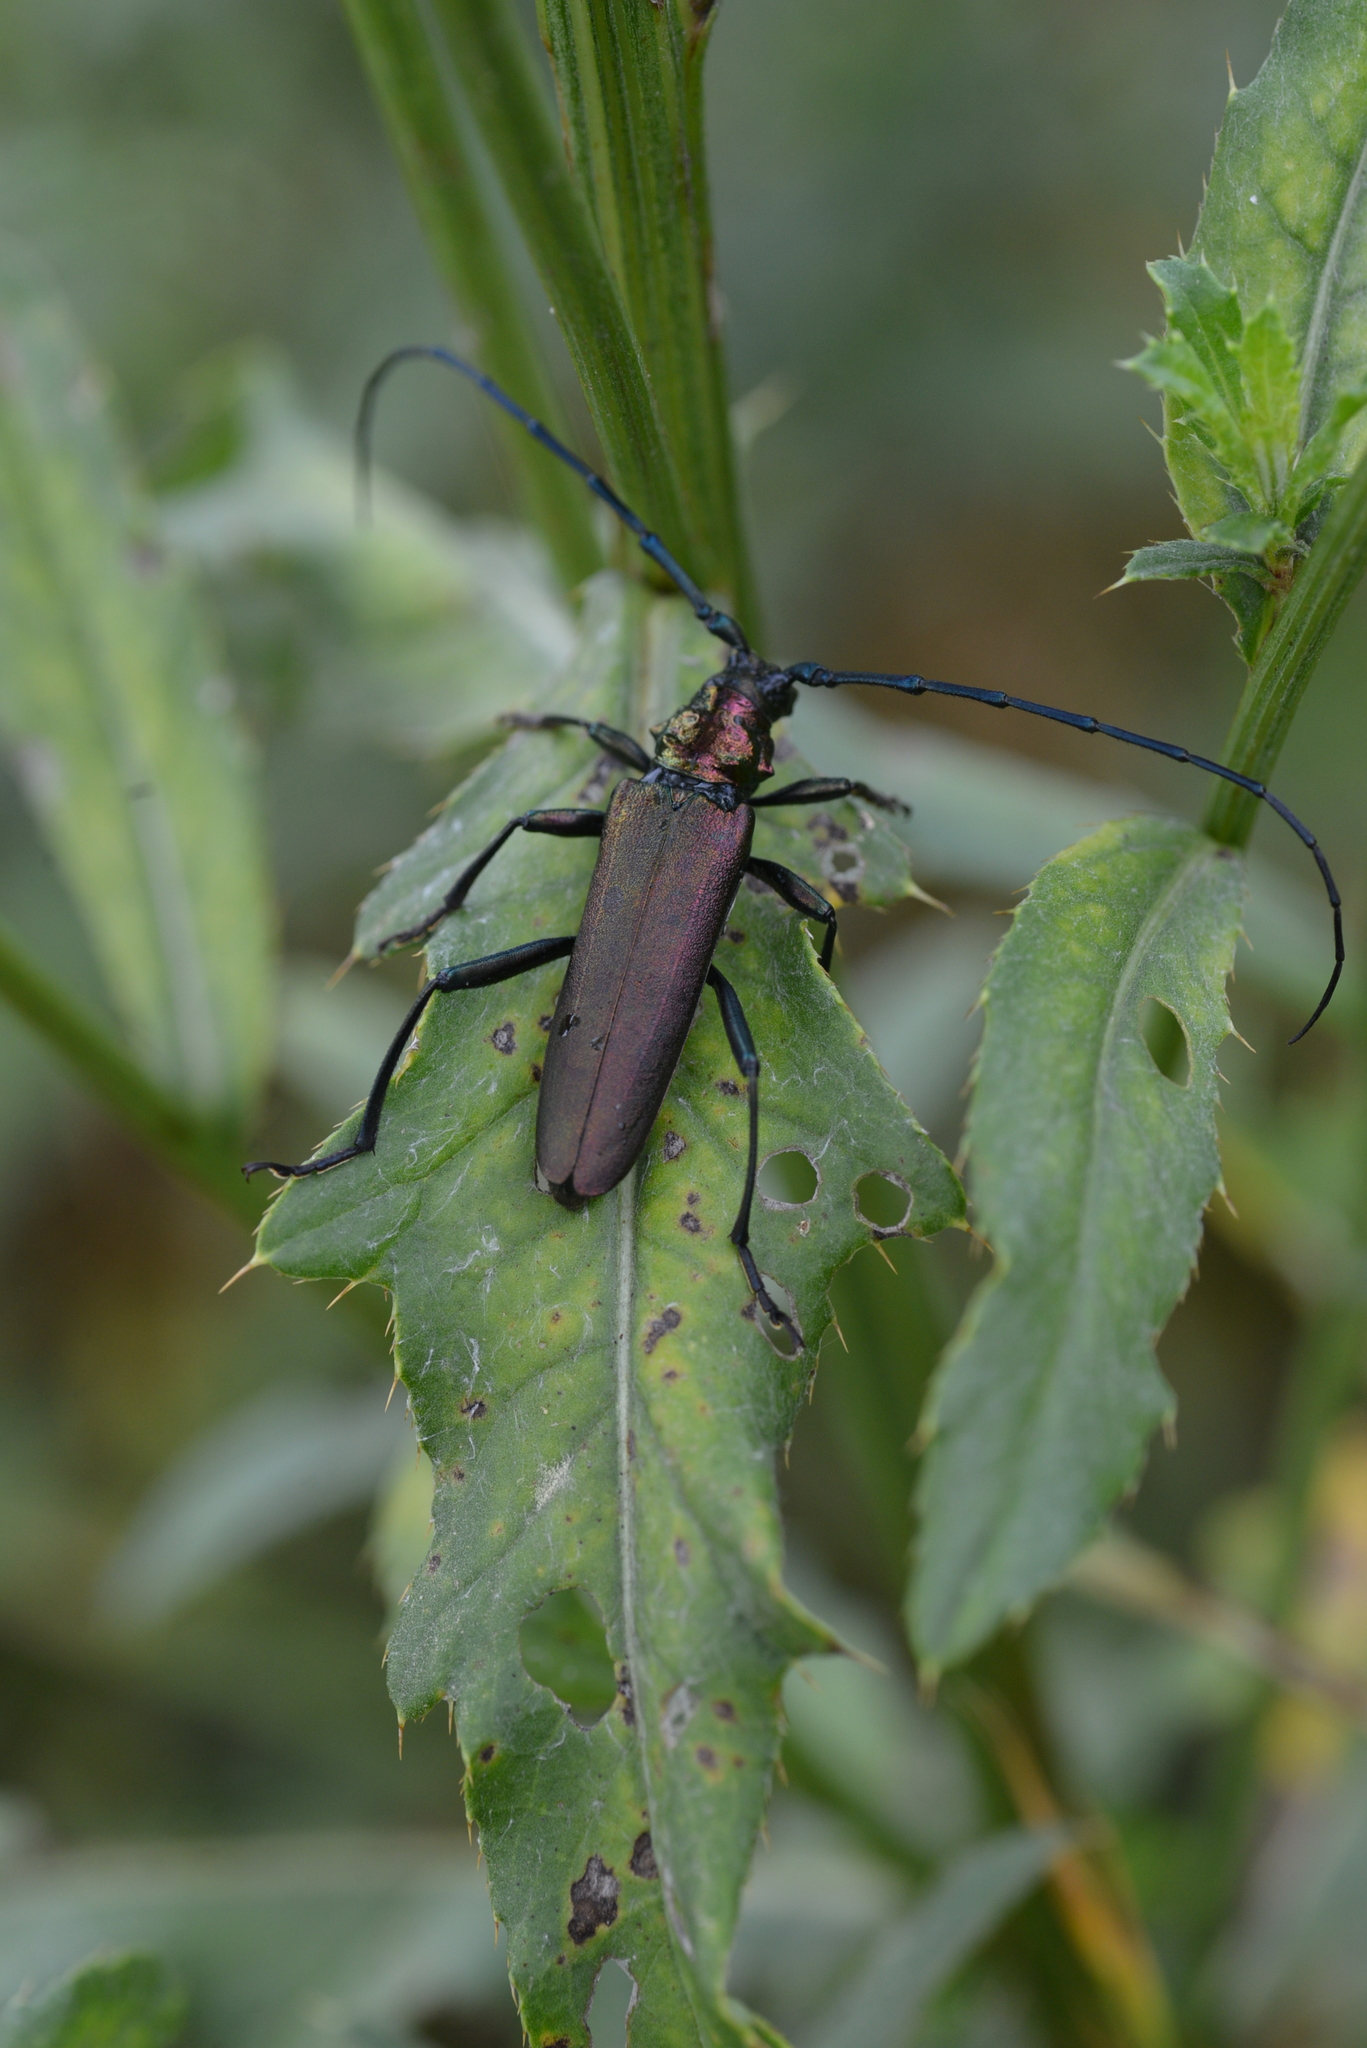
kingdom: Animalia
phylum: Arthropoda
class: Insecta
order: Coleoptera
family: Cerambycidae
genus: Aromia
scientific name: Aromia moschata
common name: Musk beetle
